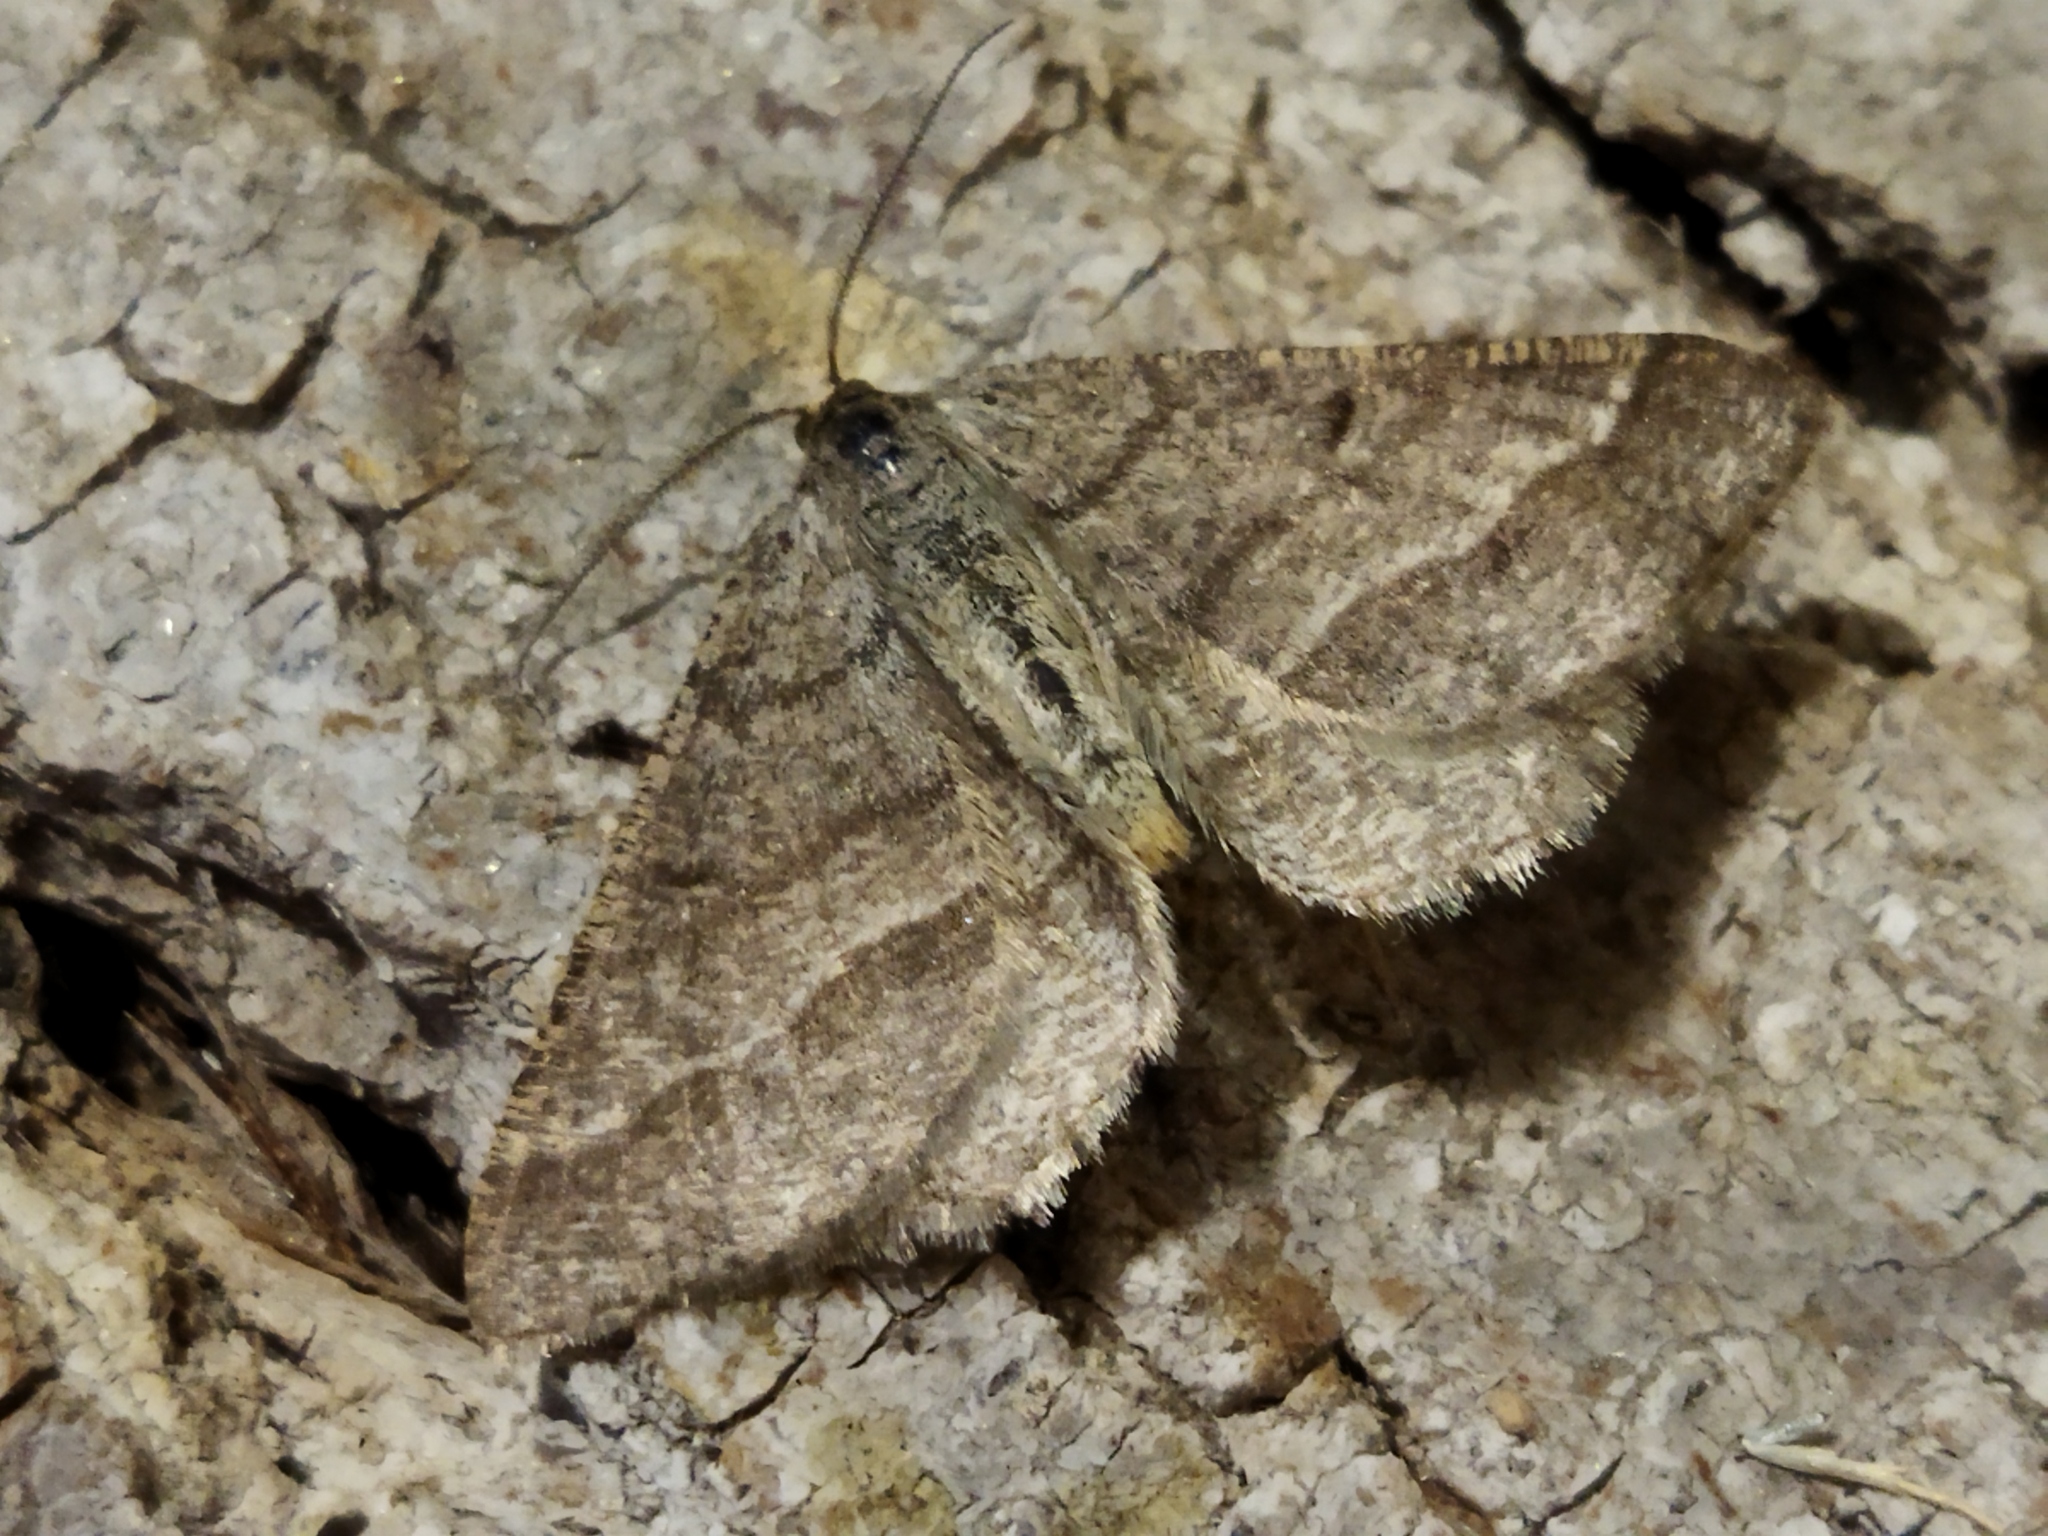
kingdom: Animalia
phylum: Arthropoda
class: Insecta
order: Lepidoptera
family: Geometridae
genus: Tephrina
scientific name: Tephrina murinaria
